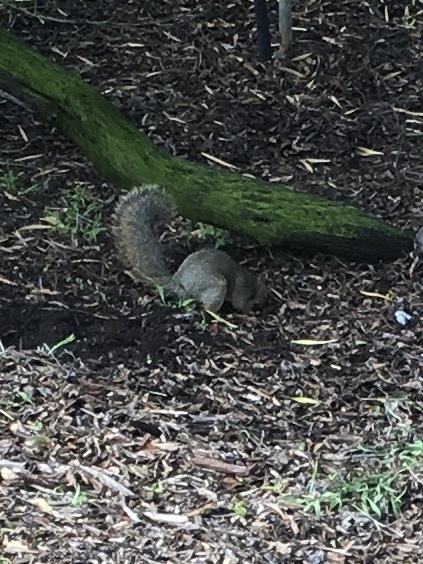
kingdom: Animalia
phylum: Chordata
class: Mammalia
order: Rodentia
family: Sciuridae
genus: Sciurus
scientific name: Sciurus niger
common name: Fox squirrel
